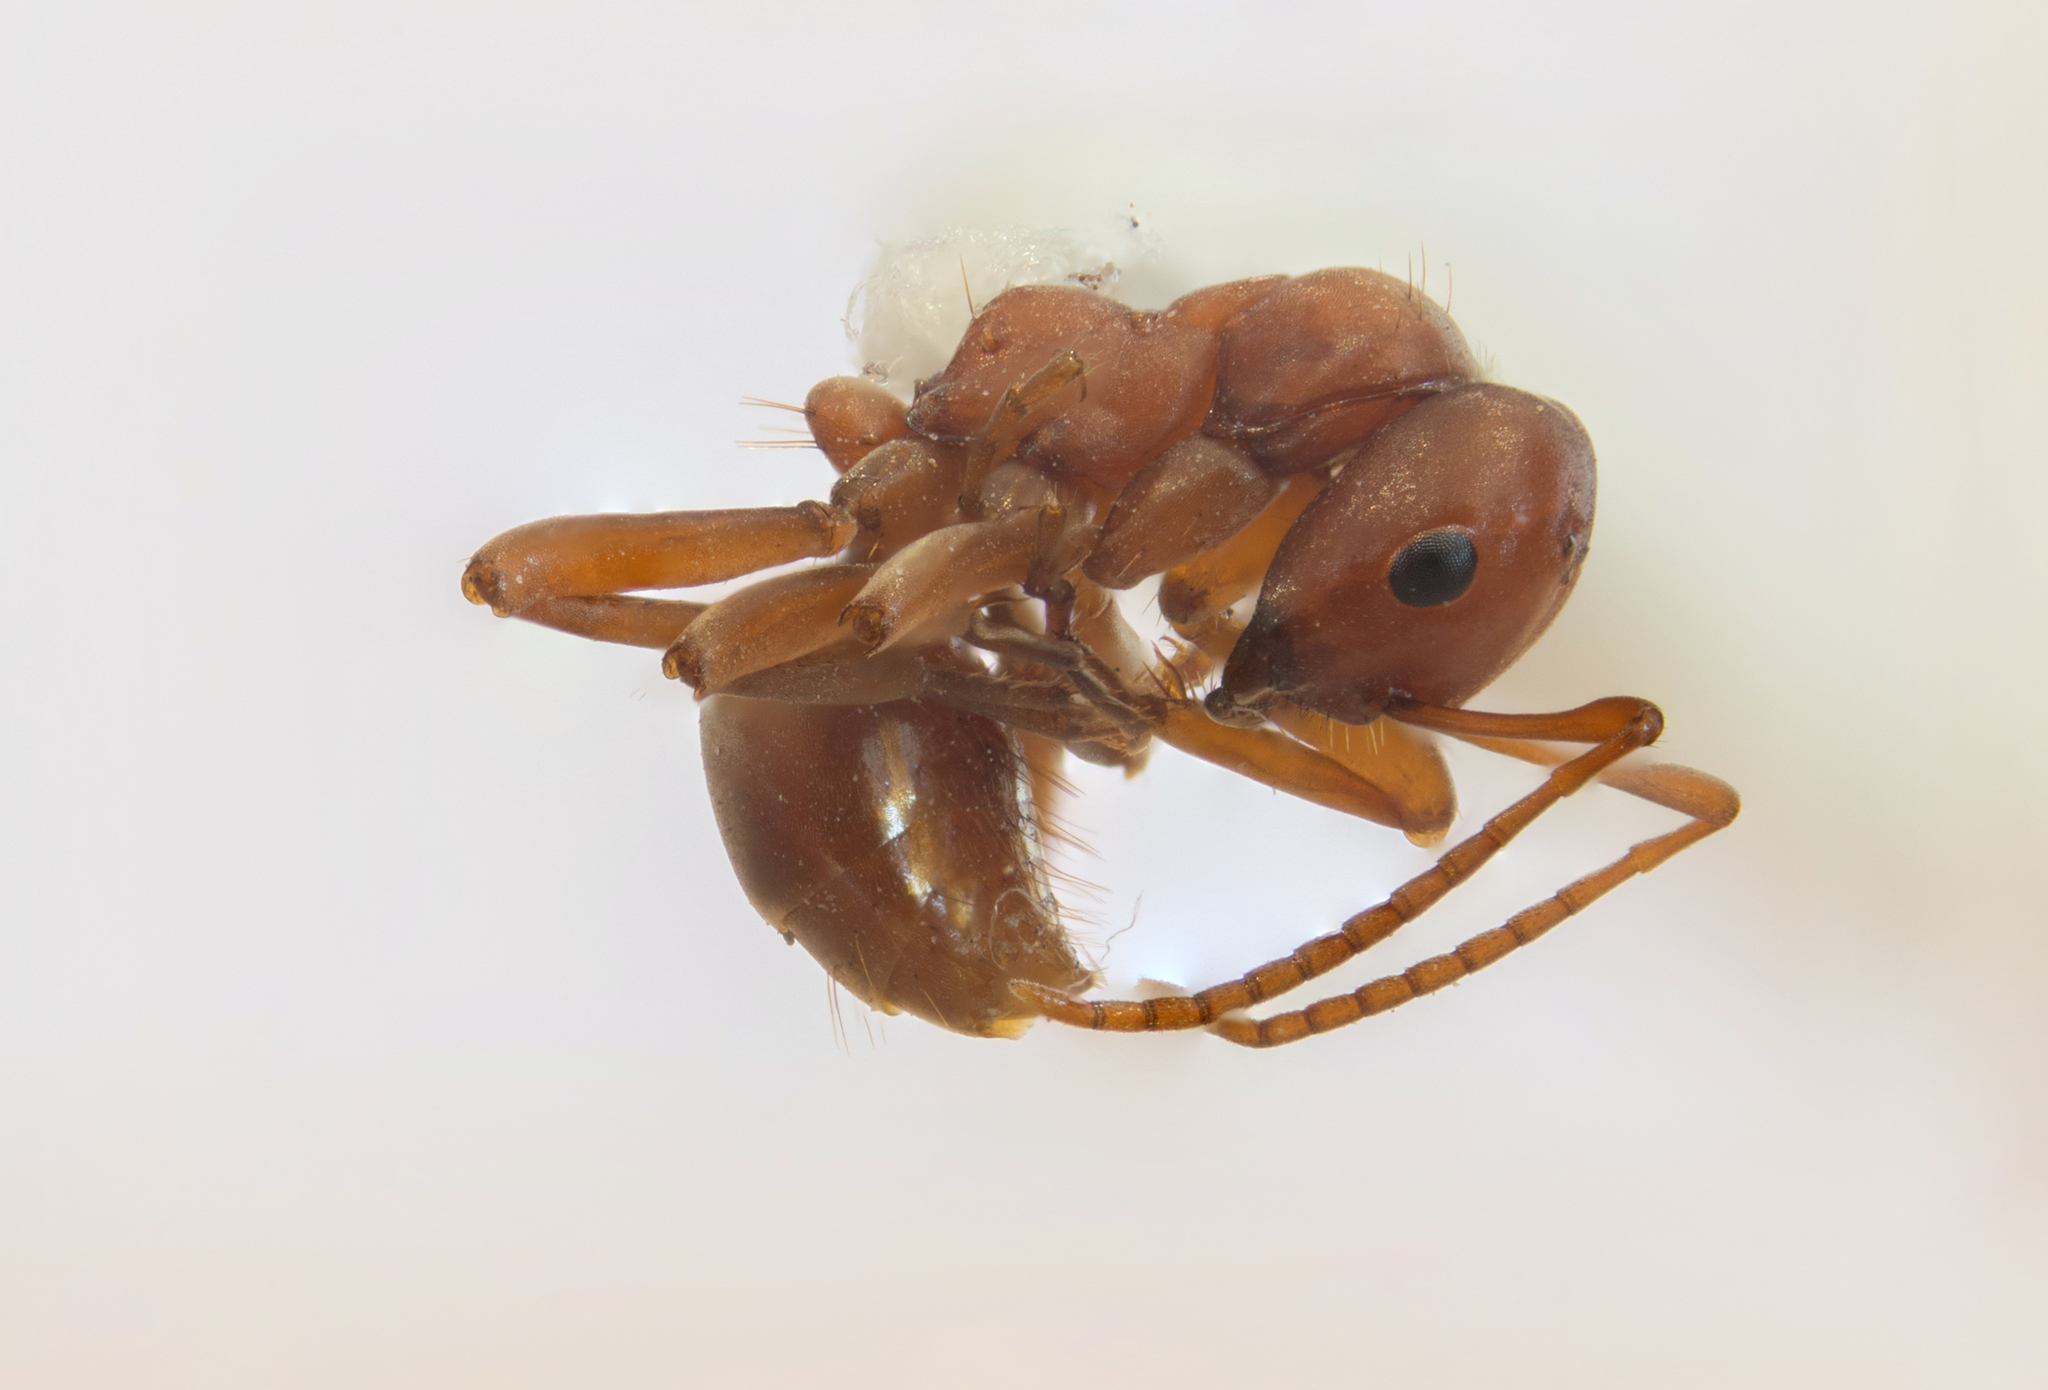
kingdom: Animalia
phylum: Arthropoda
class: Insecta
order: Hymenoptera
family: Formicidae
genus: Polyergus
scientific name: Polyergus vinosus
